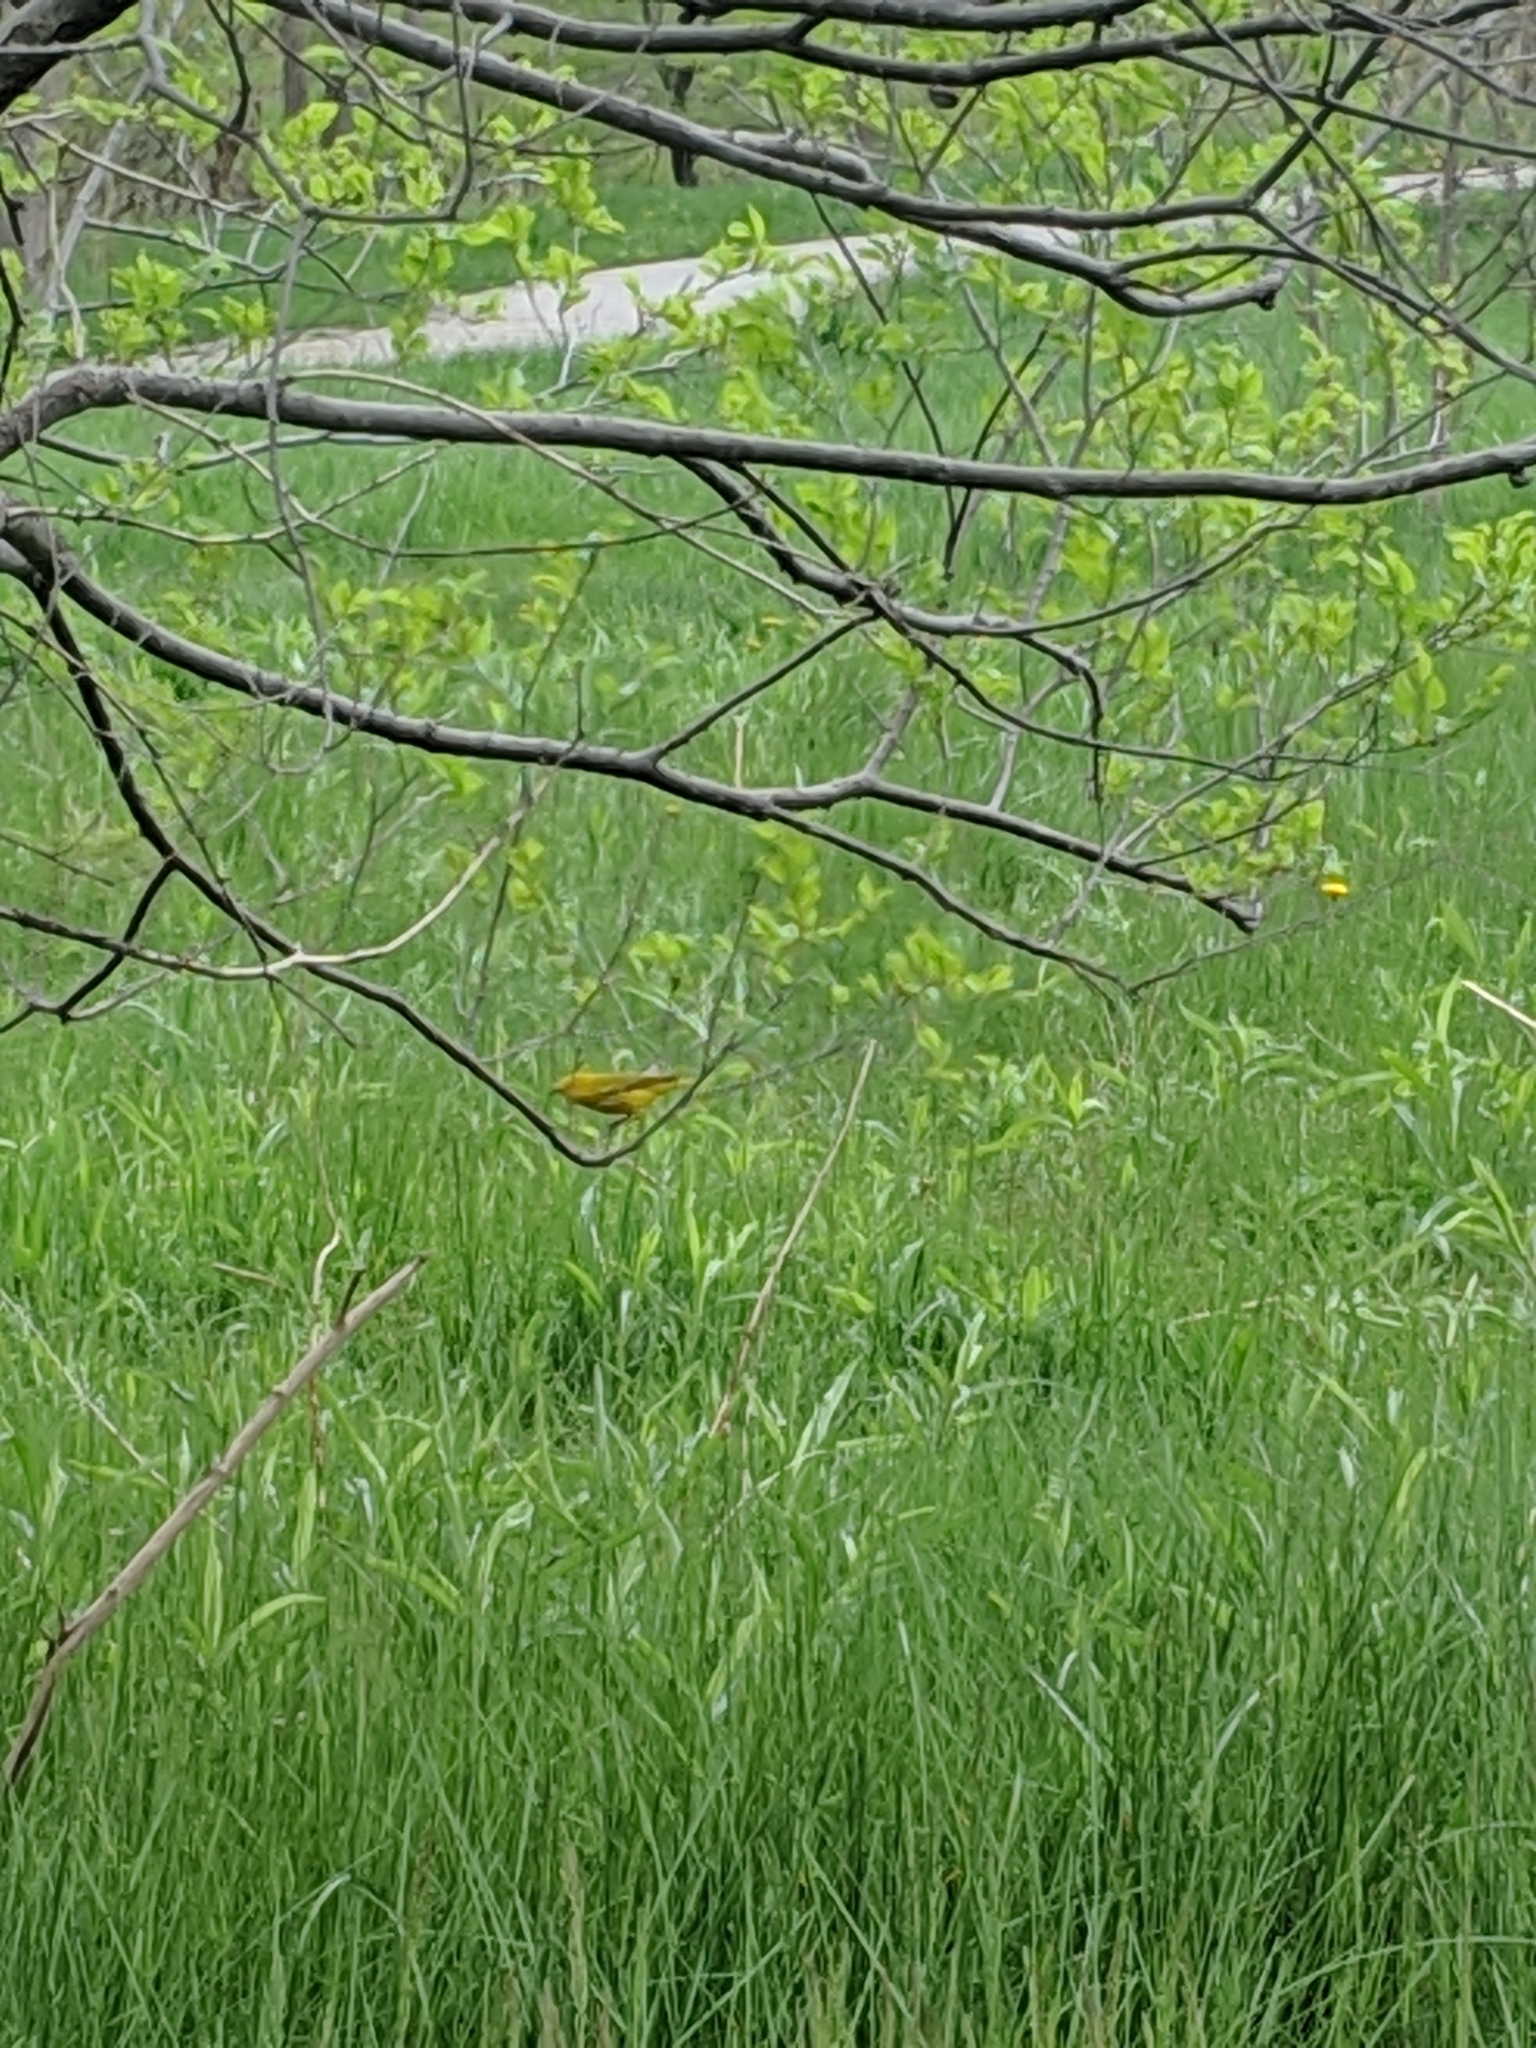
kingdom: Animalia
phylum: Chordata
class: Aves
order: Passeriformes
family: Parulidae
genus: Setophaga
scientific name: Setophaga petechia
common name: Yellow warbler
